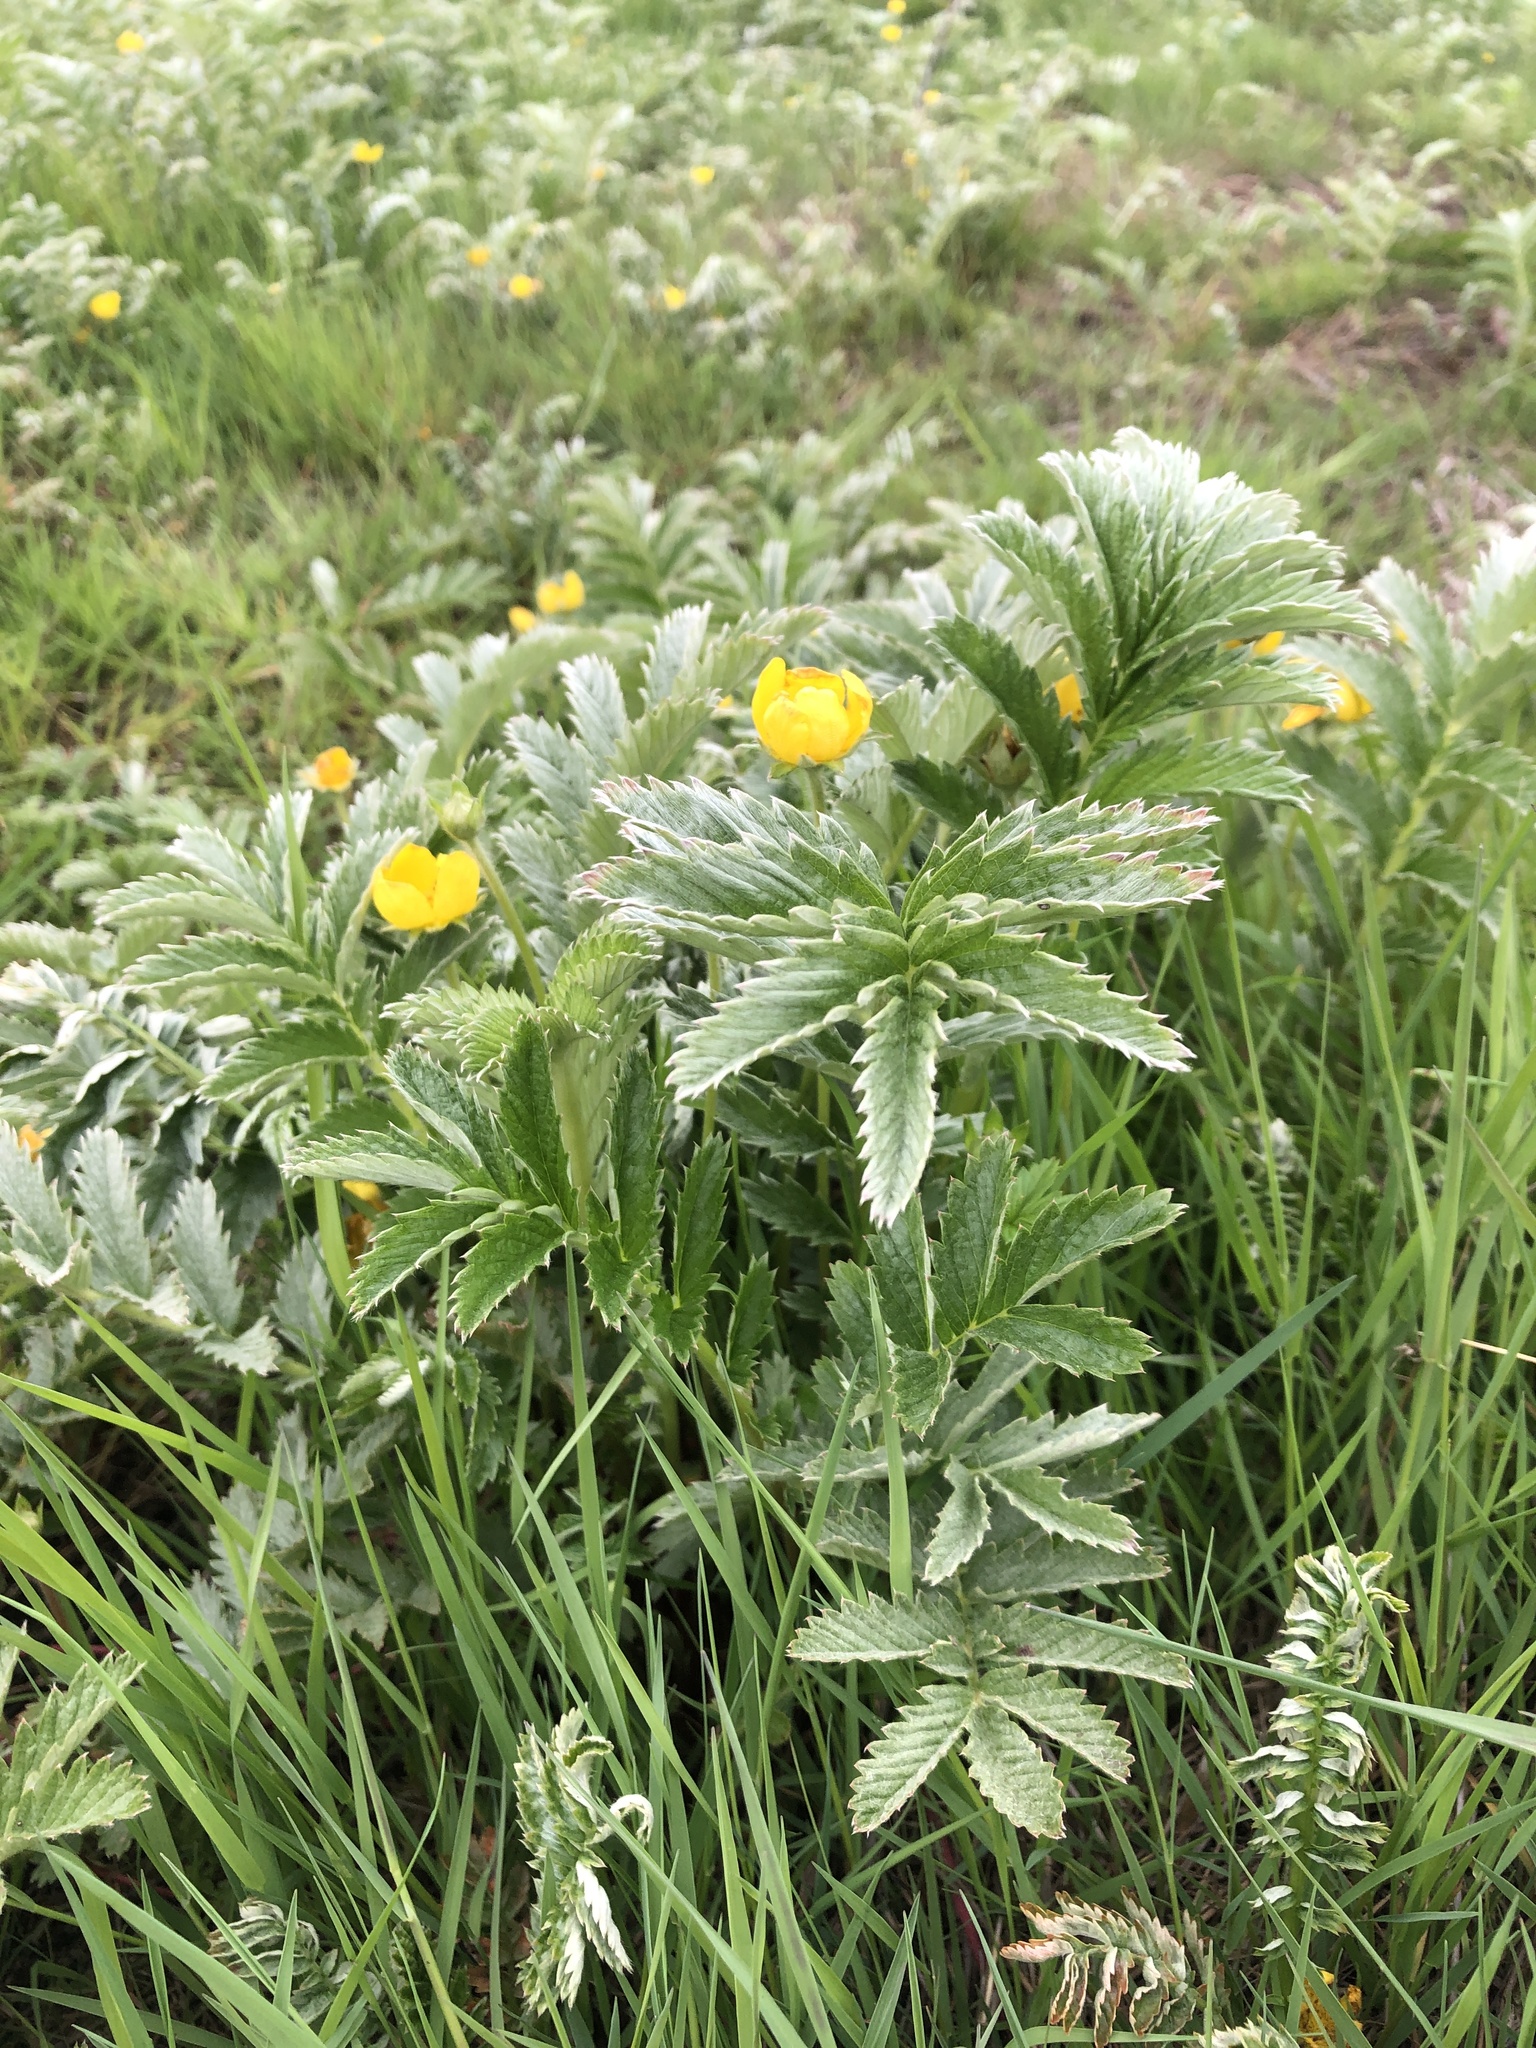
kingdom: Plantae
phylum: Tracheophyta
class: Magnoliopsida
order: Rosales
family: Rosaceae
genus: Argentina
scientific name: Argentina anserina
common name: Common silverweed
